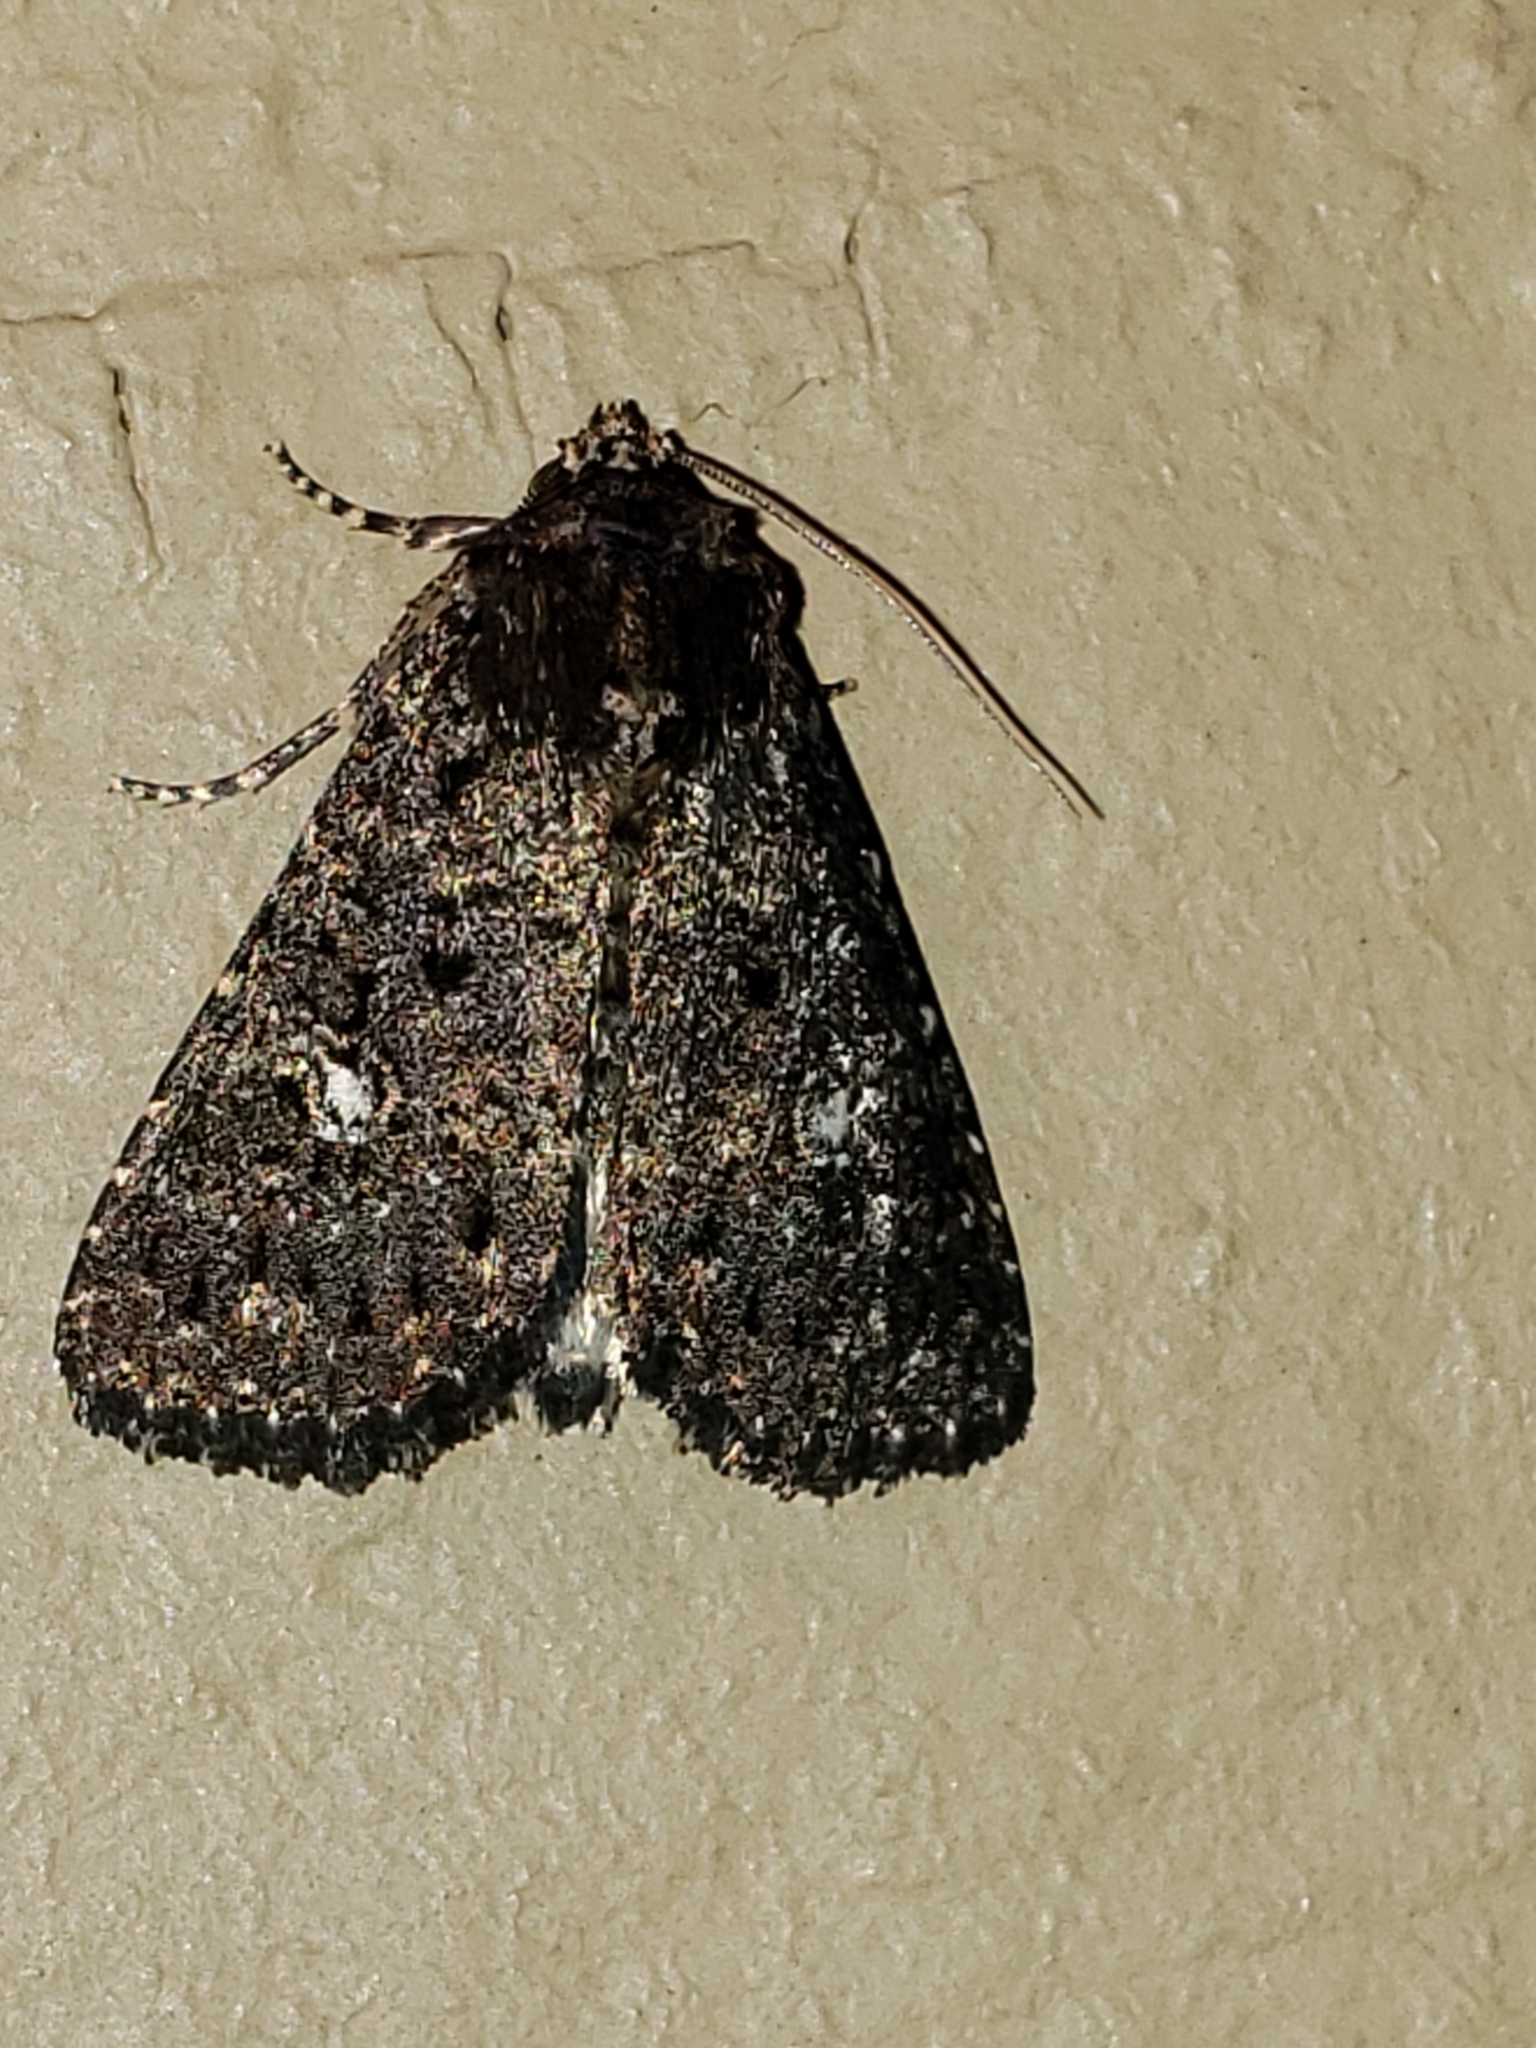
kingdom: Animalia
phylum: Arthropoda
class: Insecta
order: Lepidoptera
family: Noctuidae
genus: Condica
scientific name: Condica vecors
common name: Dusky groundling
